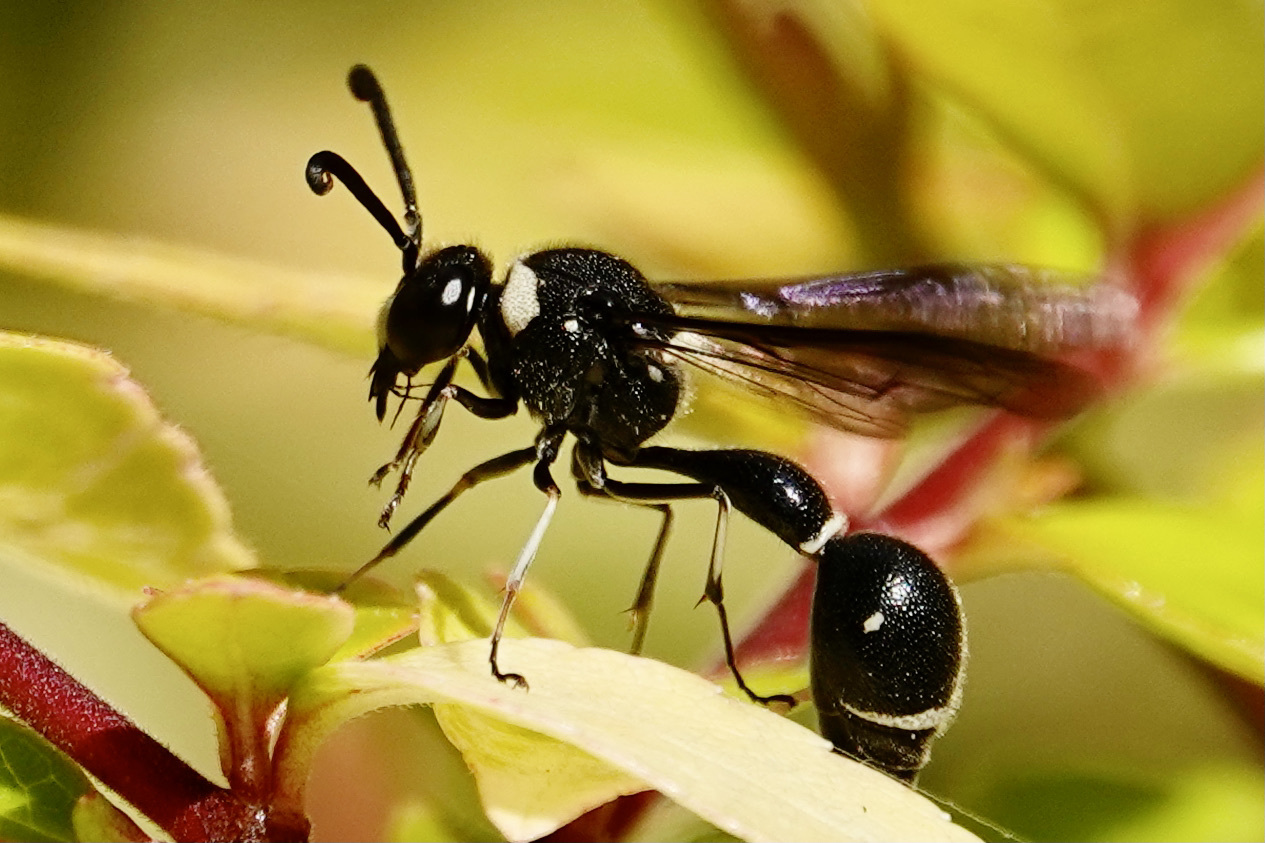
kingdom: Animalia
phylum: Arthropoda
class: Insecta
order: Hymenoptera
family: Vespidae
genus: Eumenes
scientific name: Eumenes fraternus
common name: Fraternal potter wasp
